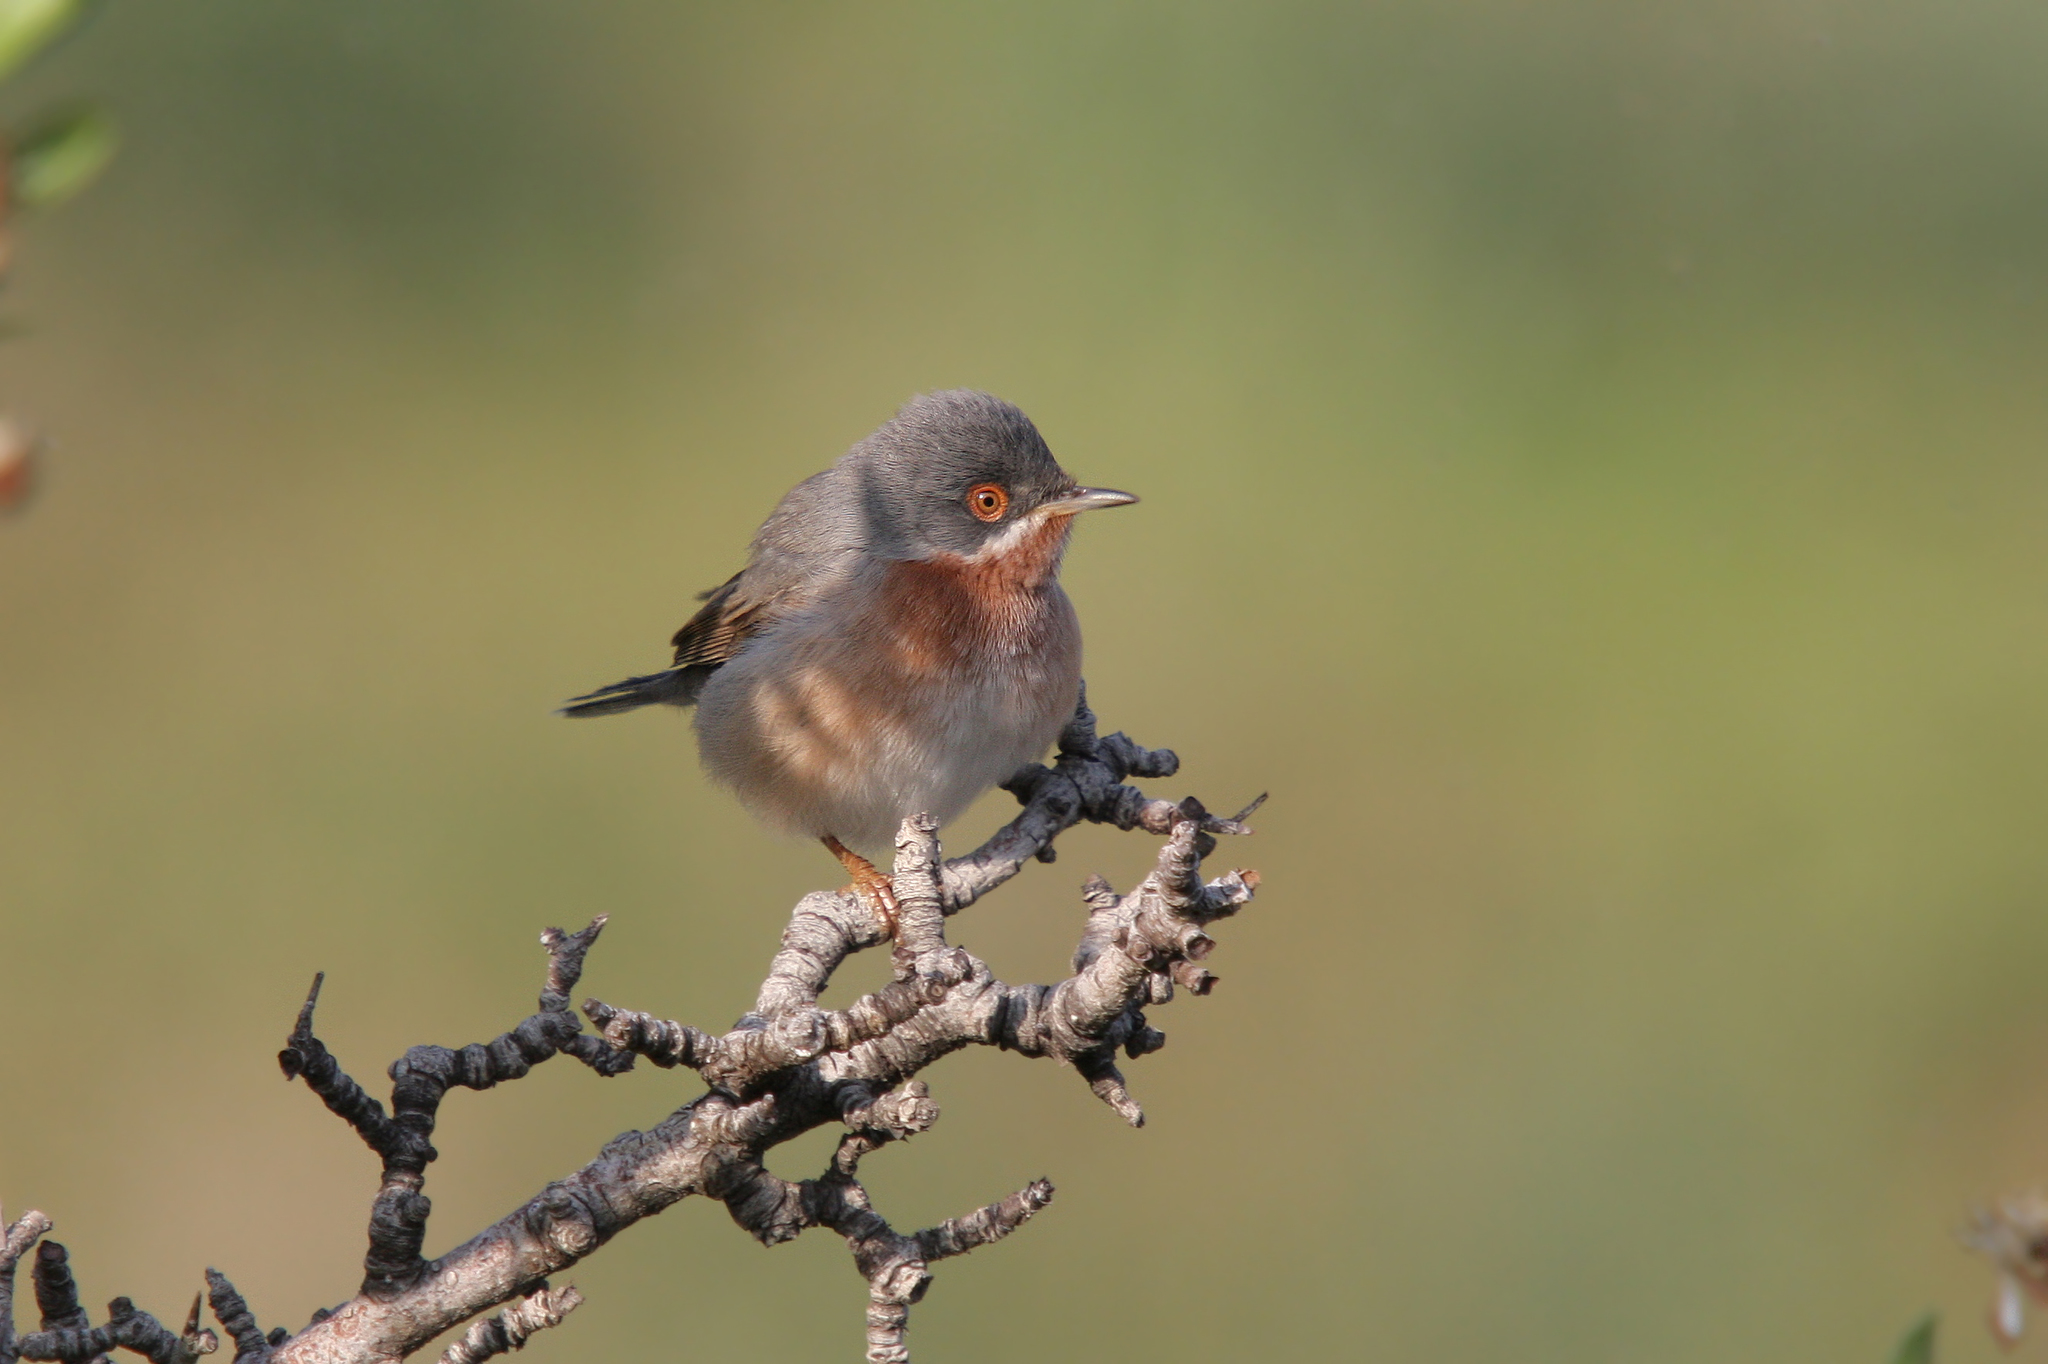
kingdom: Animalia
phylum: Chordata
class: Aves
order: Passeriformes
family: Sylviidae
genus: Curruca
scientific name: Curruca cantillans
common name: Subalpine warbler
